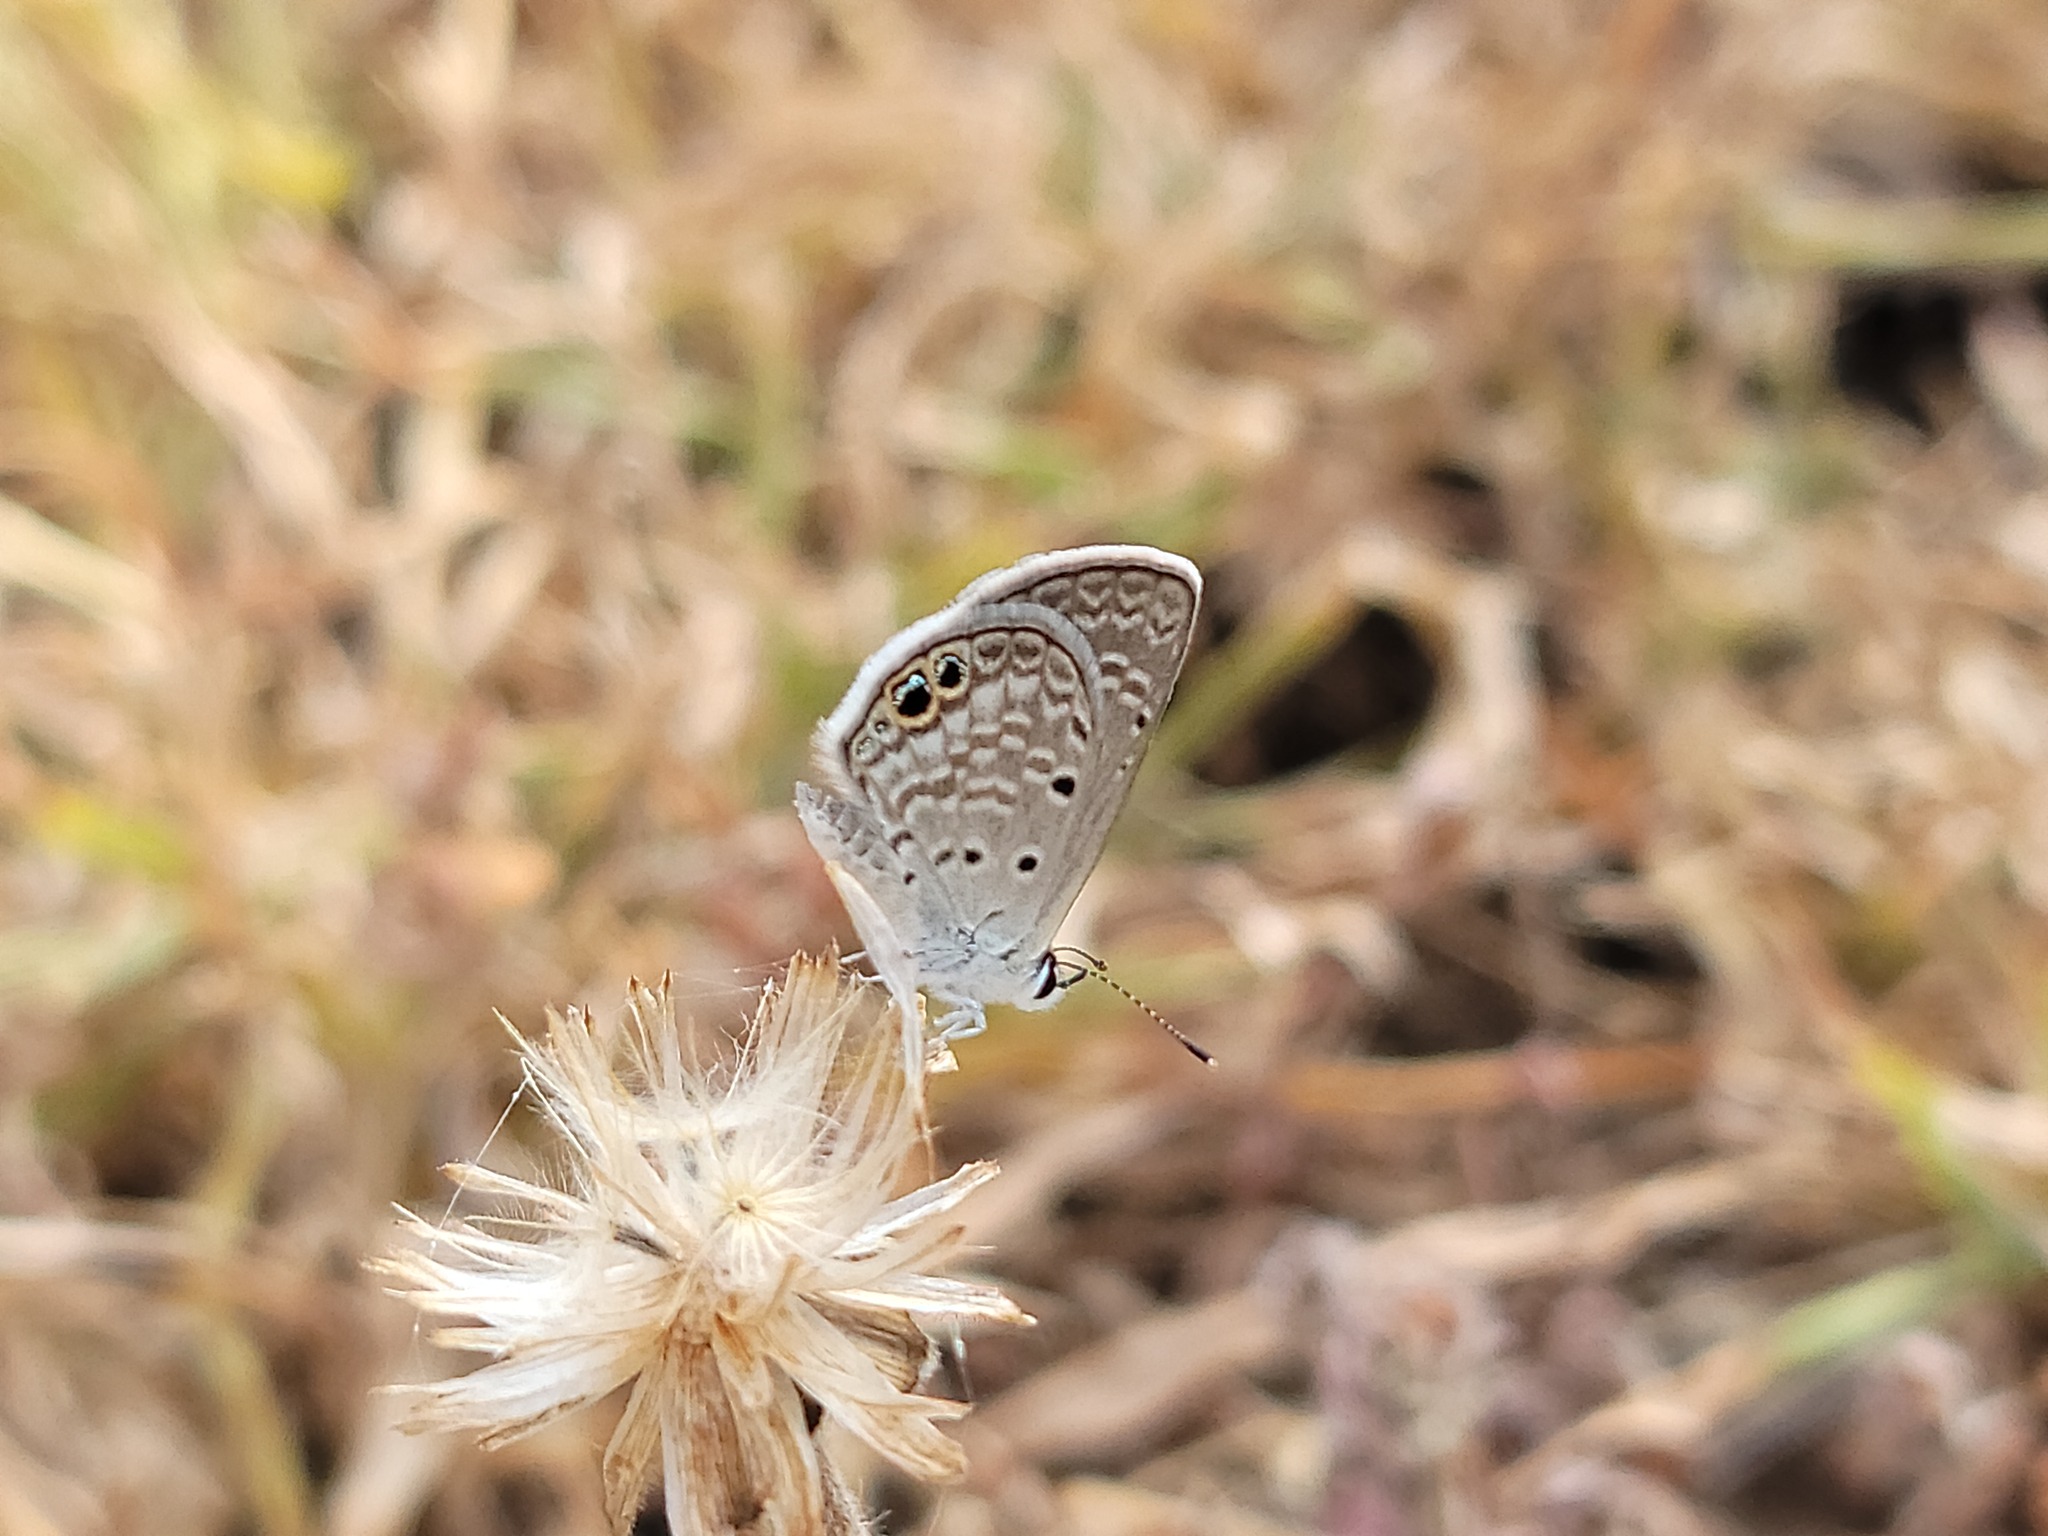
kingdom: Animalia
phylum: Arthropoda
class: Insecta
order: Lepidoptera
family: Lycaenidae
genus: Hemiargus
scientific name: Hemiargus ceraunus
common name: Ceraunus blue
